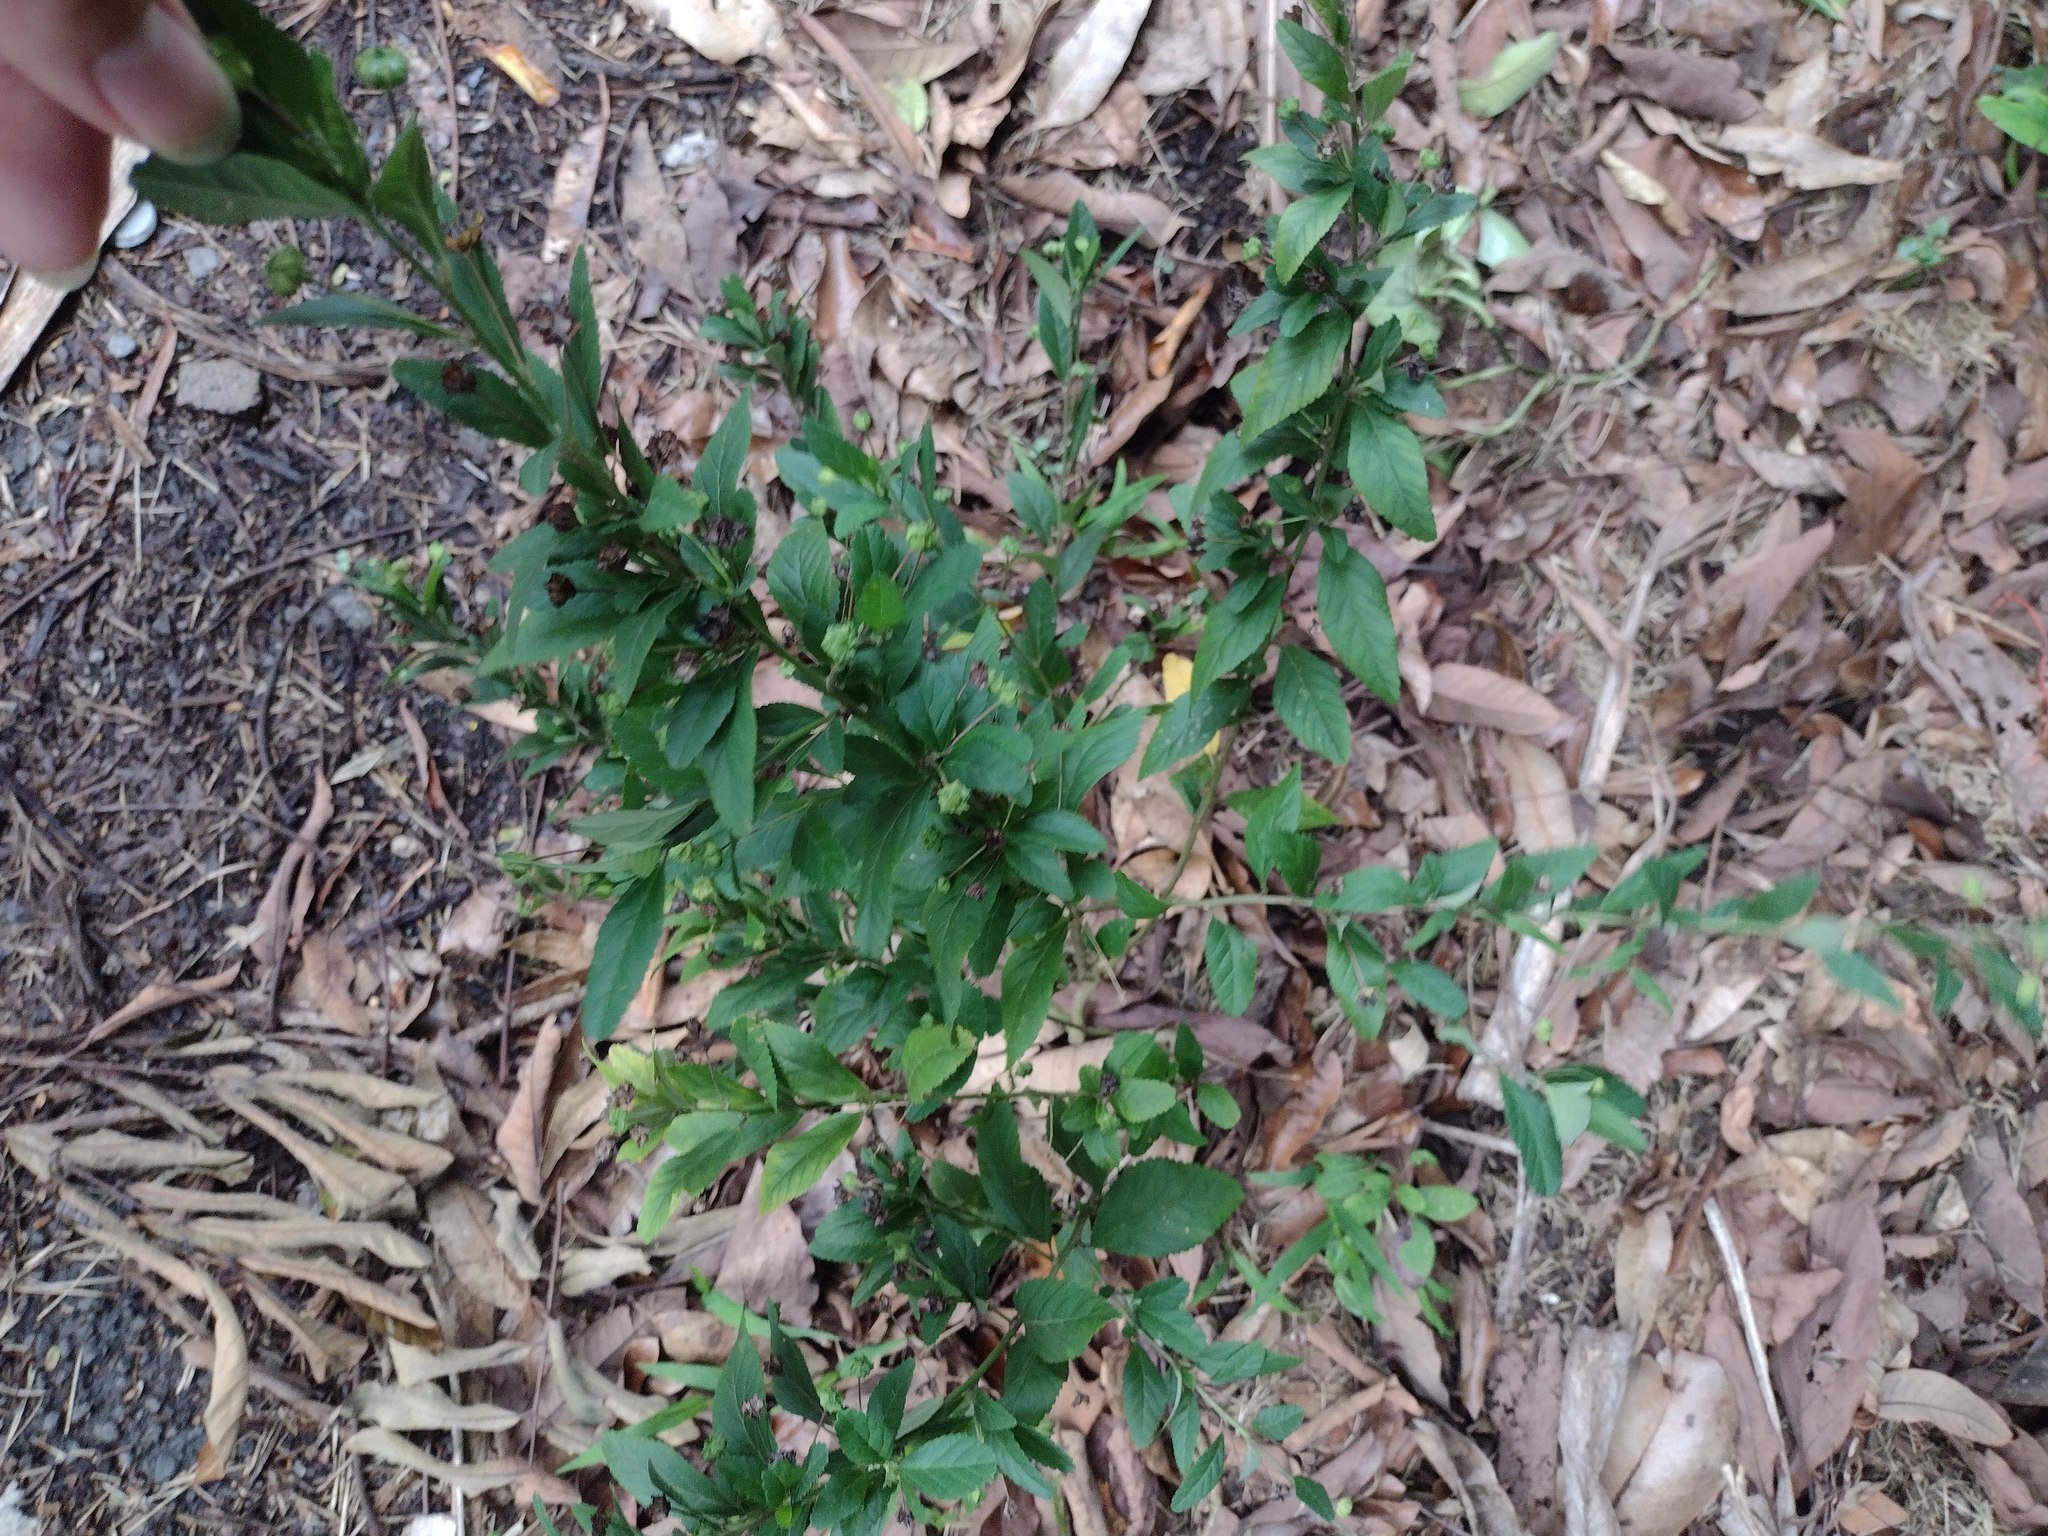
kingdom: Plantae
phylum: Tracheophyta
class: Magnoliopsida
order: Malvales
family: Malvaceae
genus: Sida
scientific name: Sida rhombifolia
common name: Queensland-hemp
